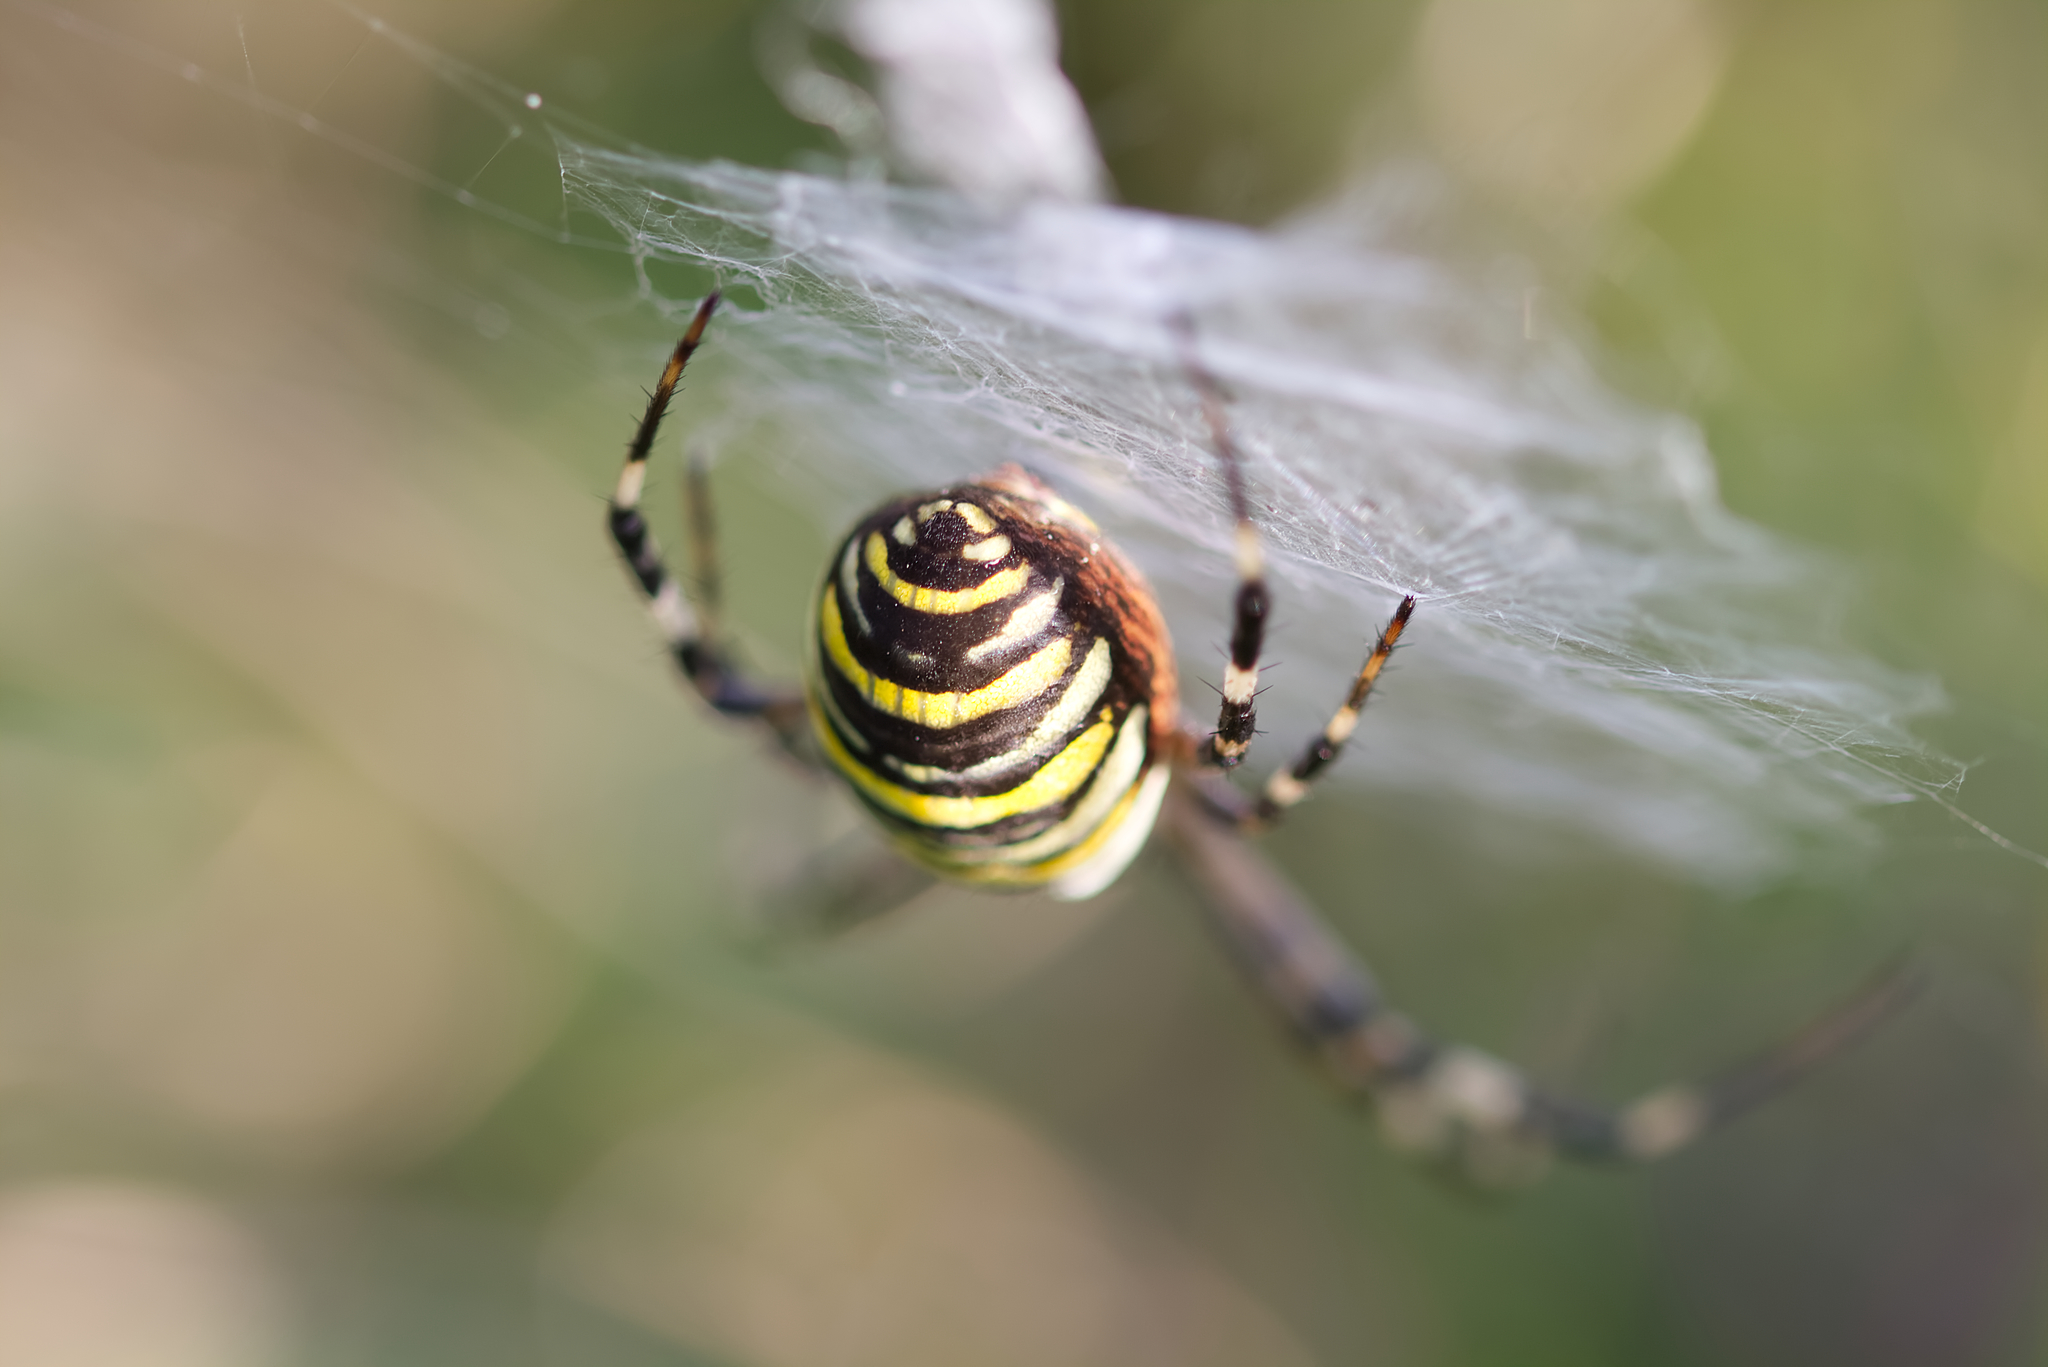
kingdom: Animalia
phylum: Arthropoda
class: Arachnida
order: Araneae
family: Araneidae
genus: Argiope
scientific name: Argiope bruennichi
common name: Wasp spider
